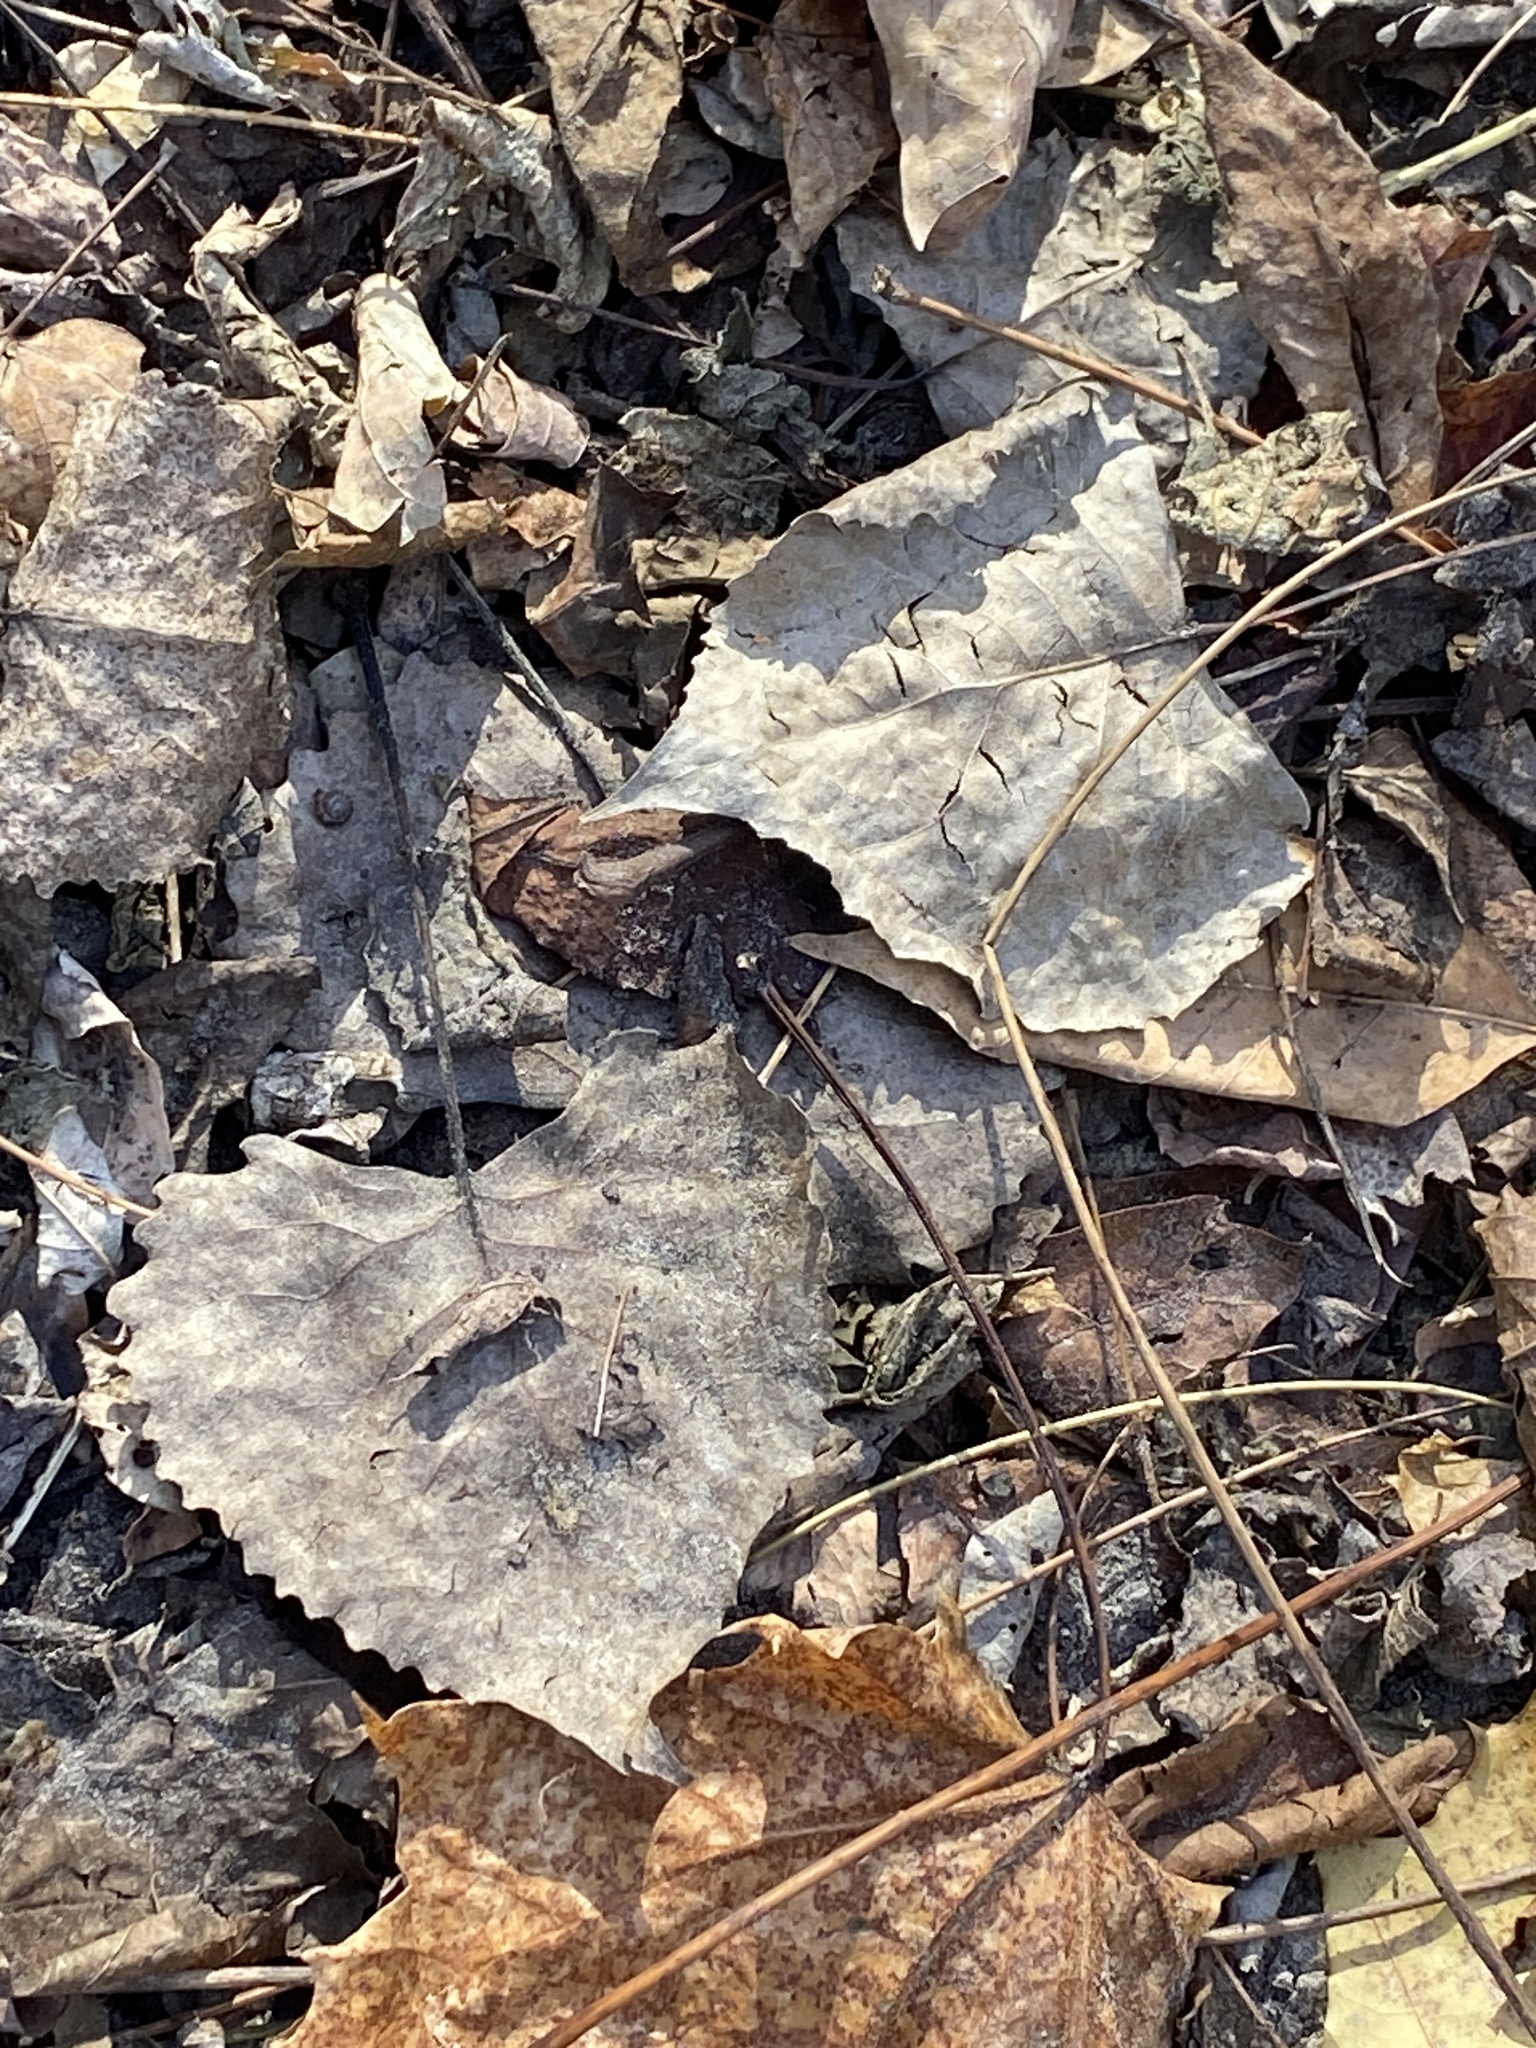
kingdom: Plantae
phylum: Tracheophyta
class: Magnoliopsida
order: Fabales
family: Fabaceae
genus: Robinia
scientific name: Robinia pseudoacacia
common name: Black locust
